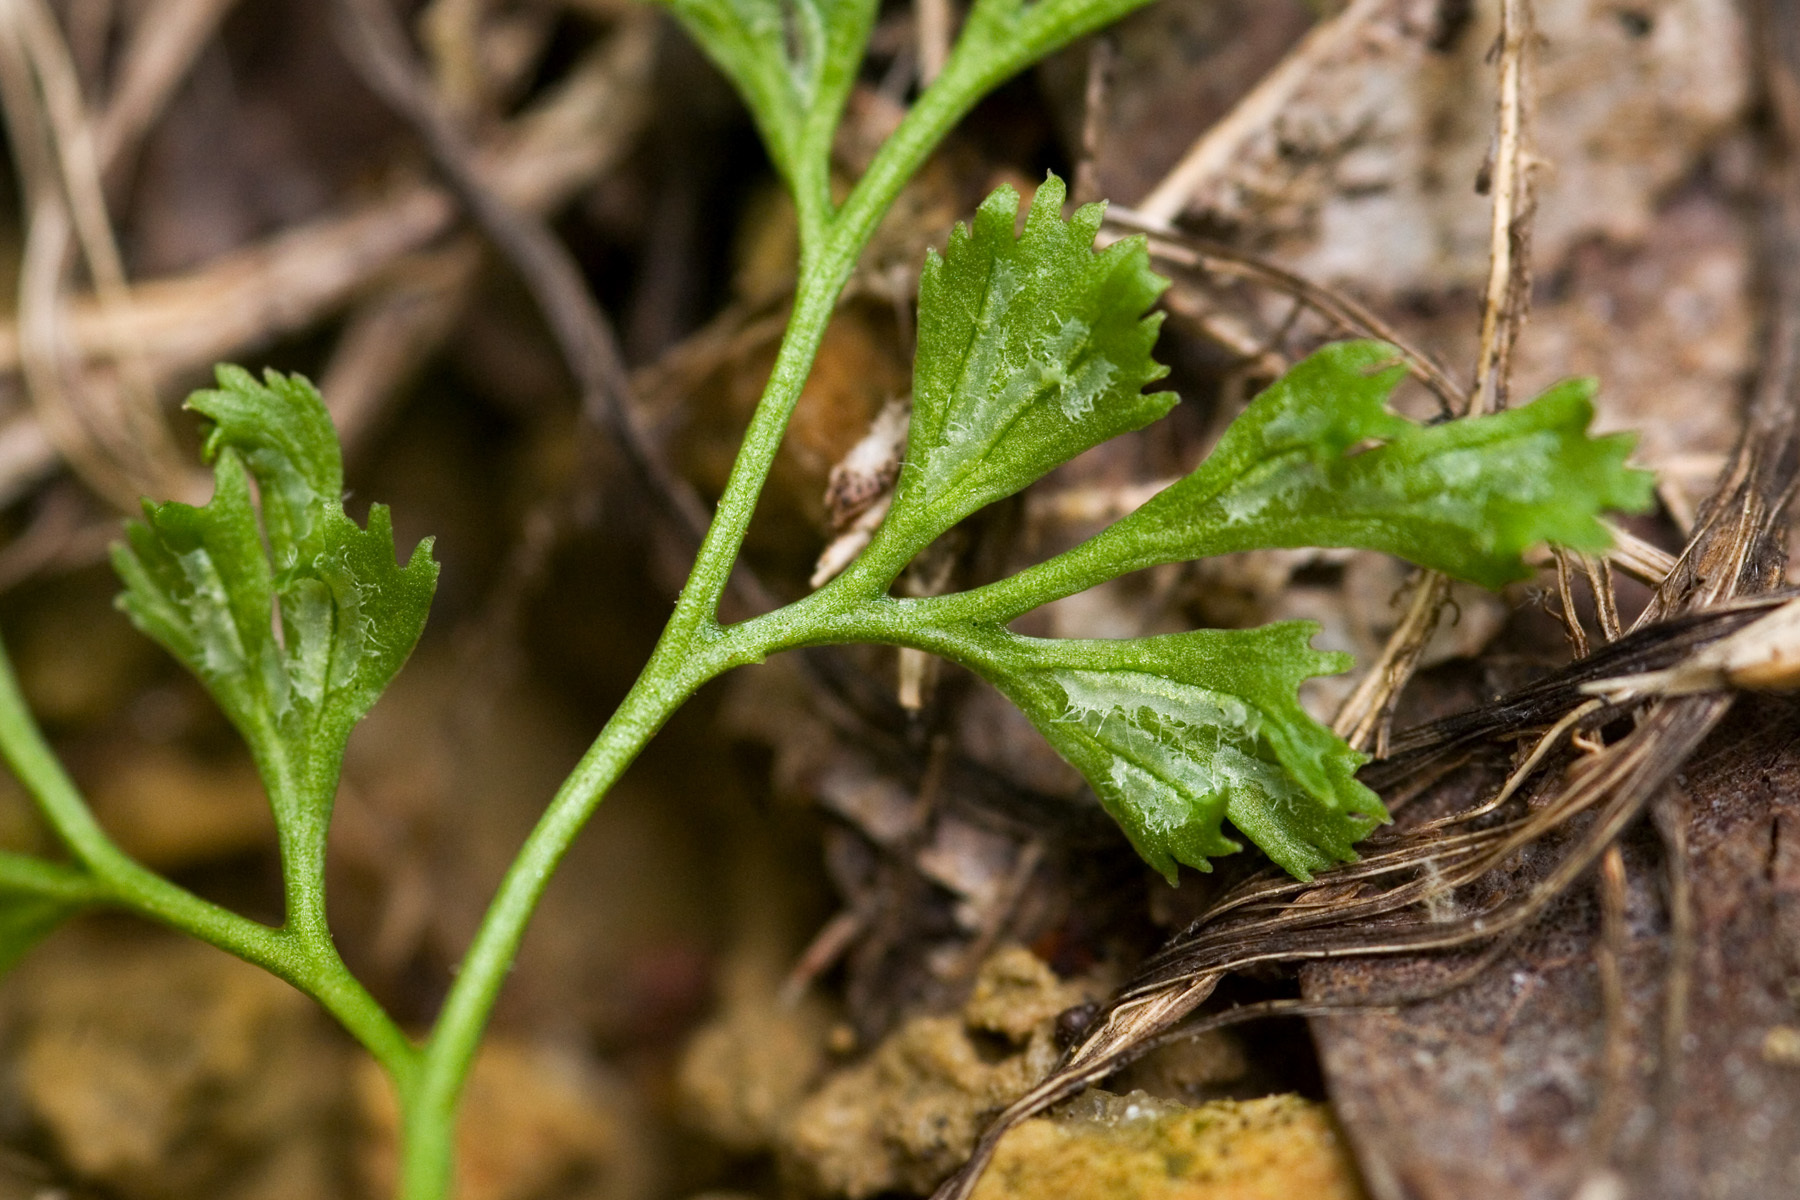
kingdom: Plantae
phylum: Tracheophyta
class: Polypodiopsida
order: Polypodiales
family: Aspleniaceae
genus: Asplenium
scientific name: Asplenium ruta-muraria
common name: Wall-rue
